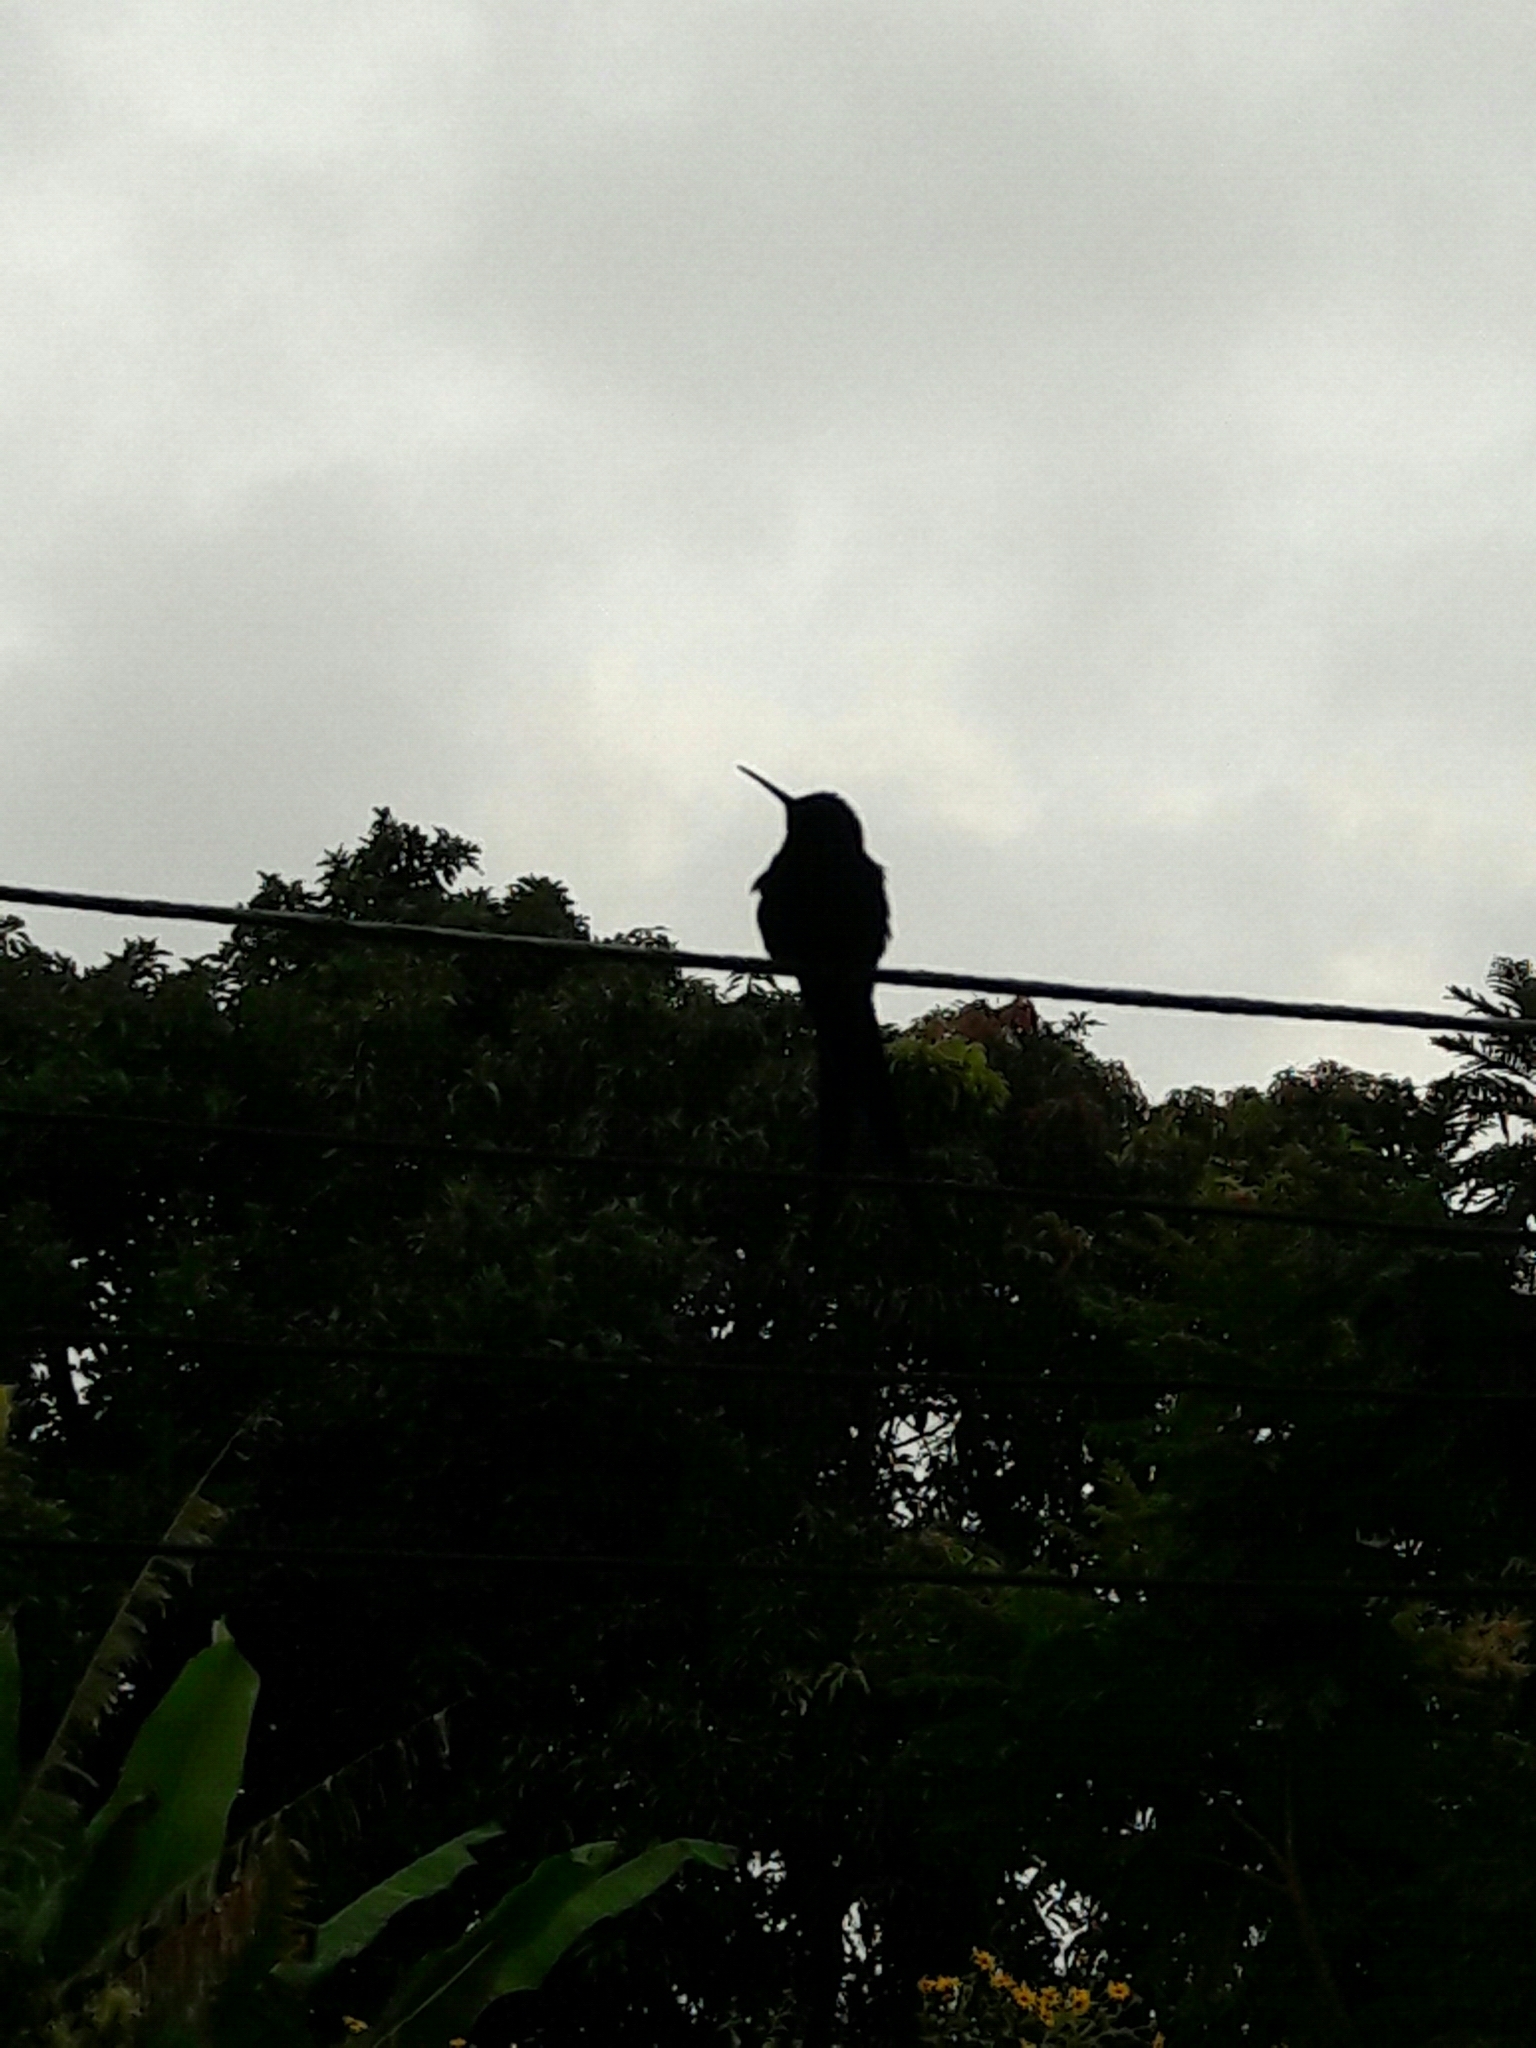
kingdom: Animalia
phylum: Chordata
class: Aves
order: Apodiformes
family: Trochilidae
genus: Eupetomena
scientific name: Eupetomena macroura
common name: Swallow-tailed hummingbird
